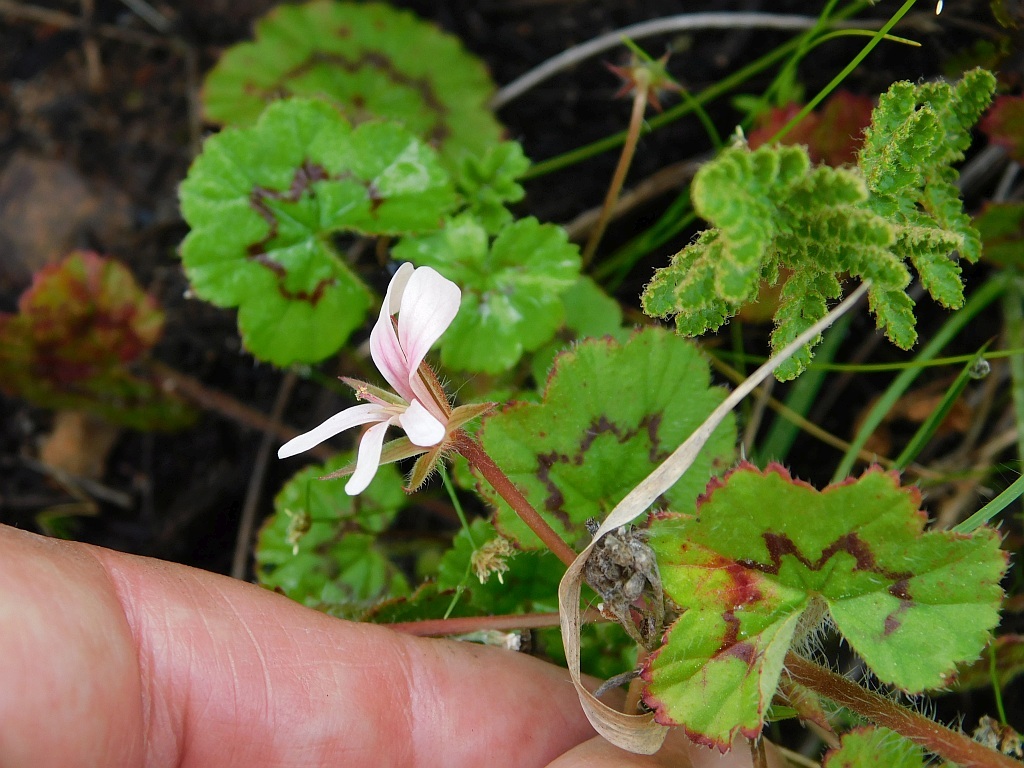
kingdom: Plantae
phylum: Tracheophyta
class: Magnoliopsida
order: Geraniales
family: Geraniaceae
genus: Pelargonium
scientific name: Pelargonium alchemilloides
